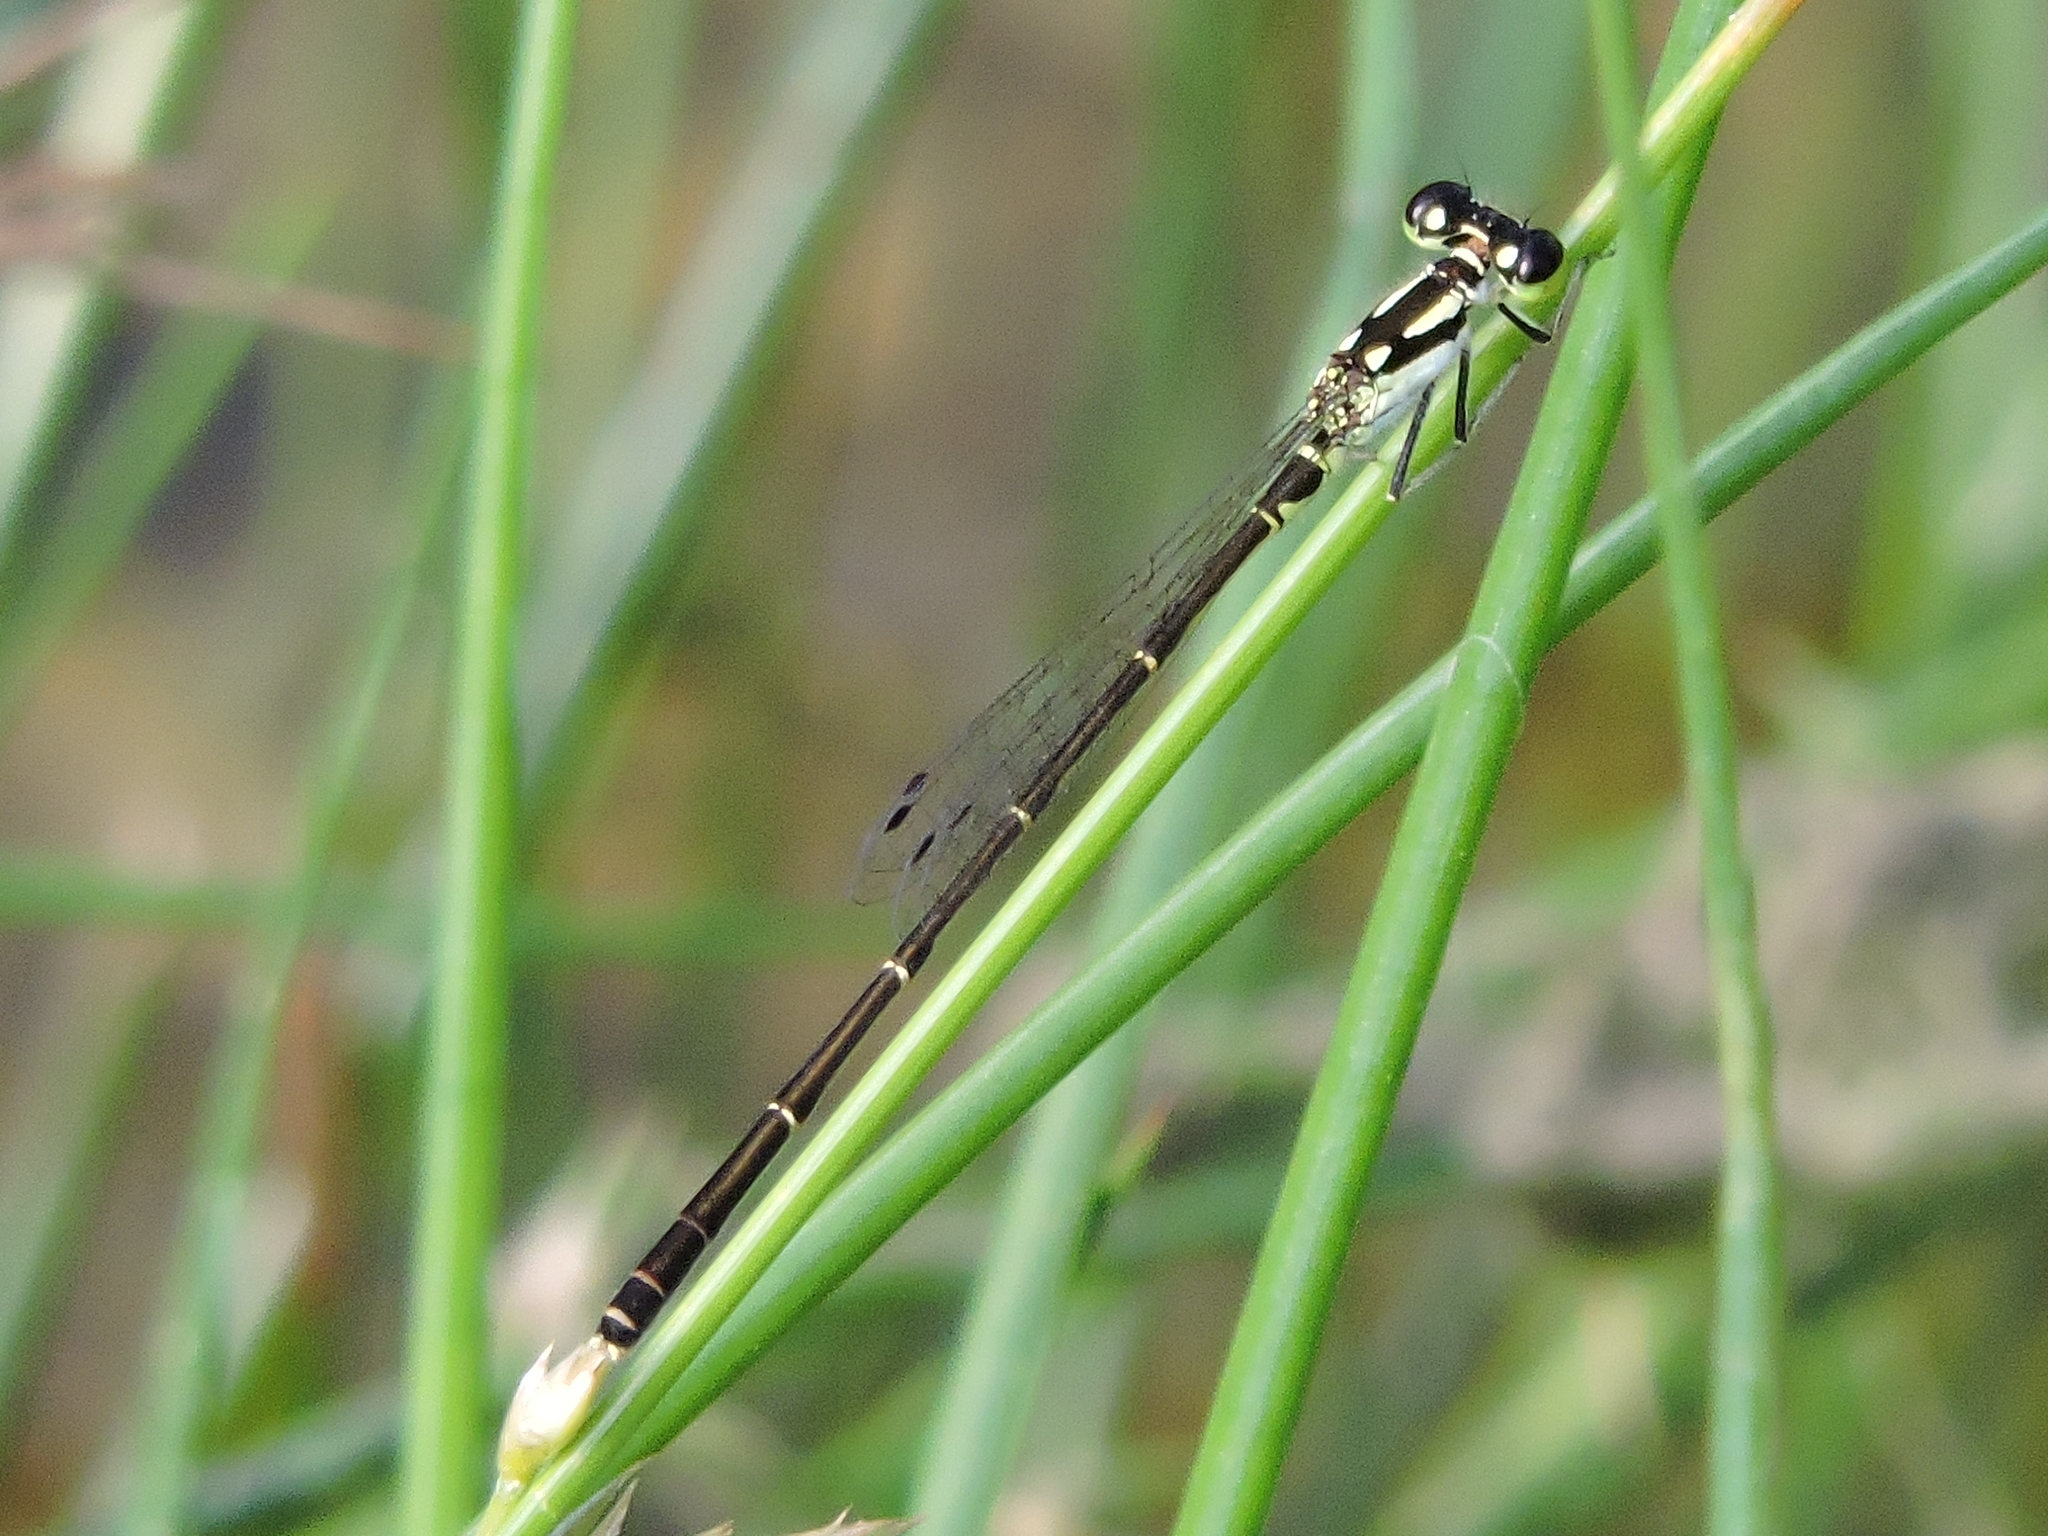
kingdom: Animalia
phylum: Arthropoda
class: Insecta
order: Odonata
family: Coenagrionidae
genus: Ischnura
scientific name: Ischnura posita
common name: Fragile forktail
